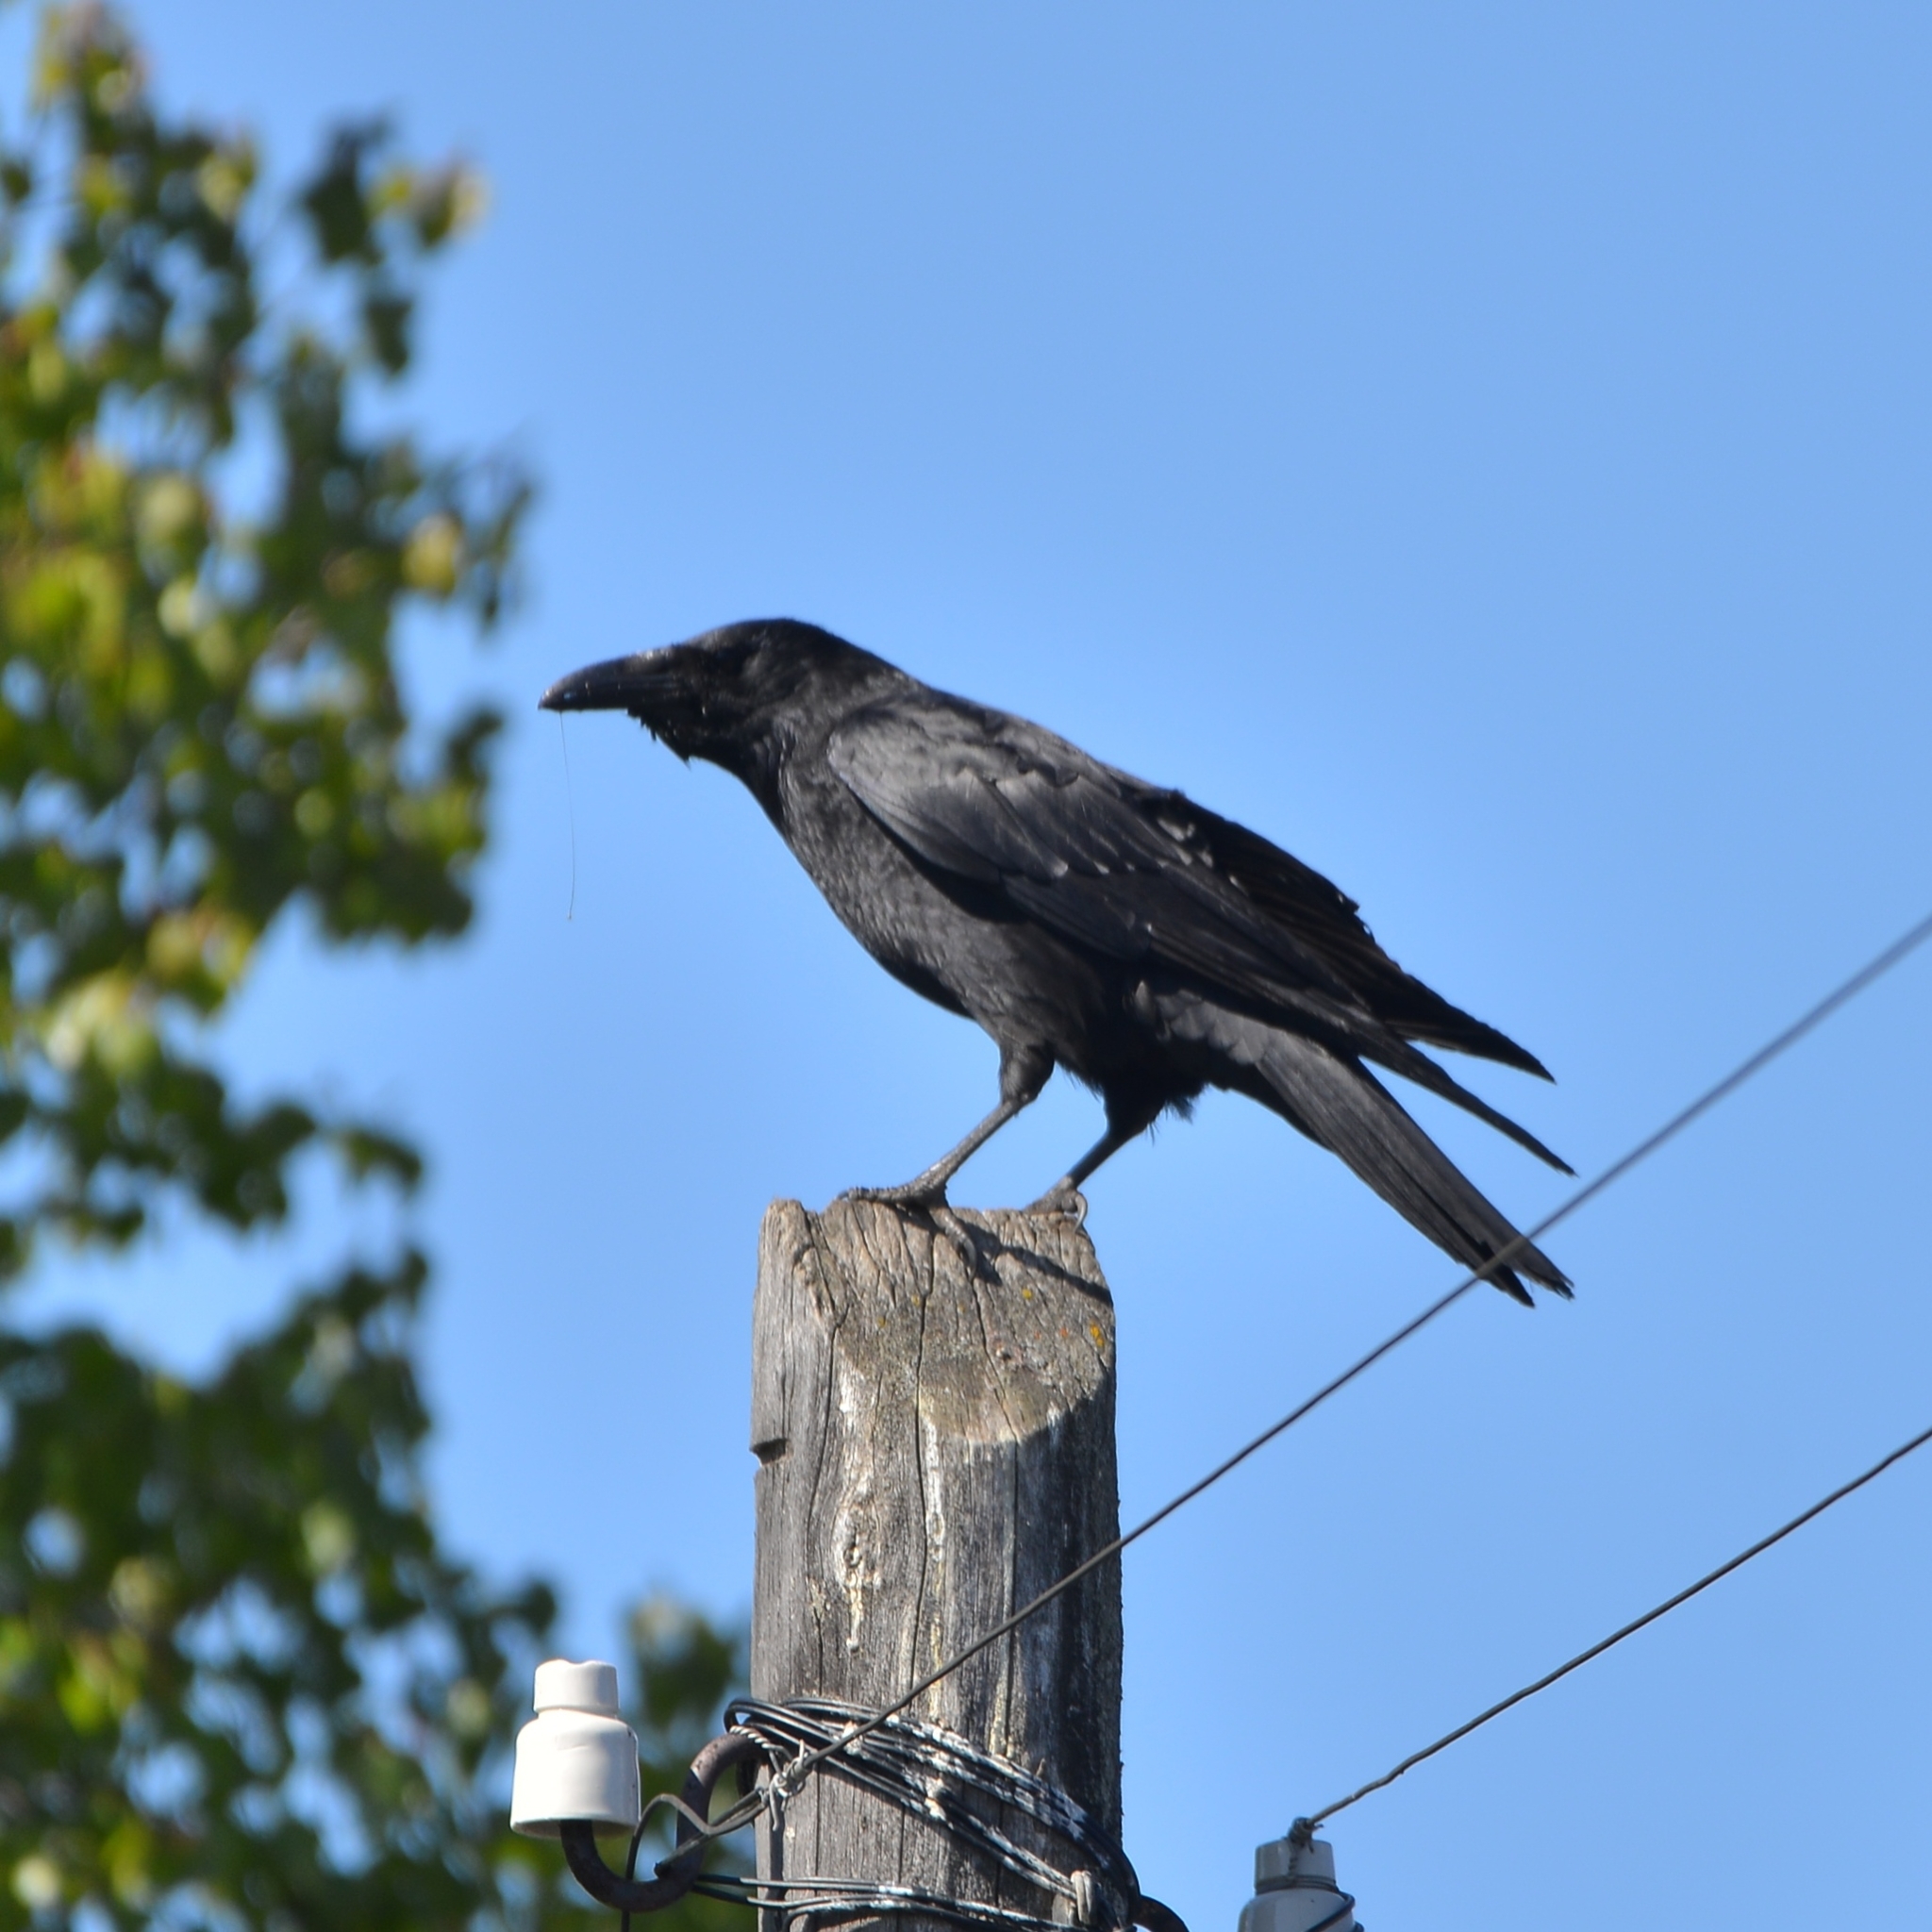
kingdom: Animalia
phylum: Chordata
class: Aves
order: Passeriformes
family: Corvidae
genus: Corvus
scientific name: Corvus corone
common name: Carrion crow
